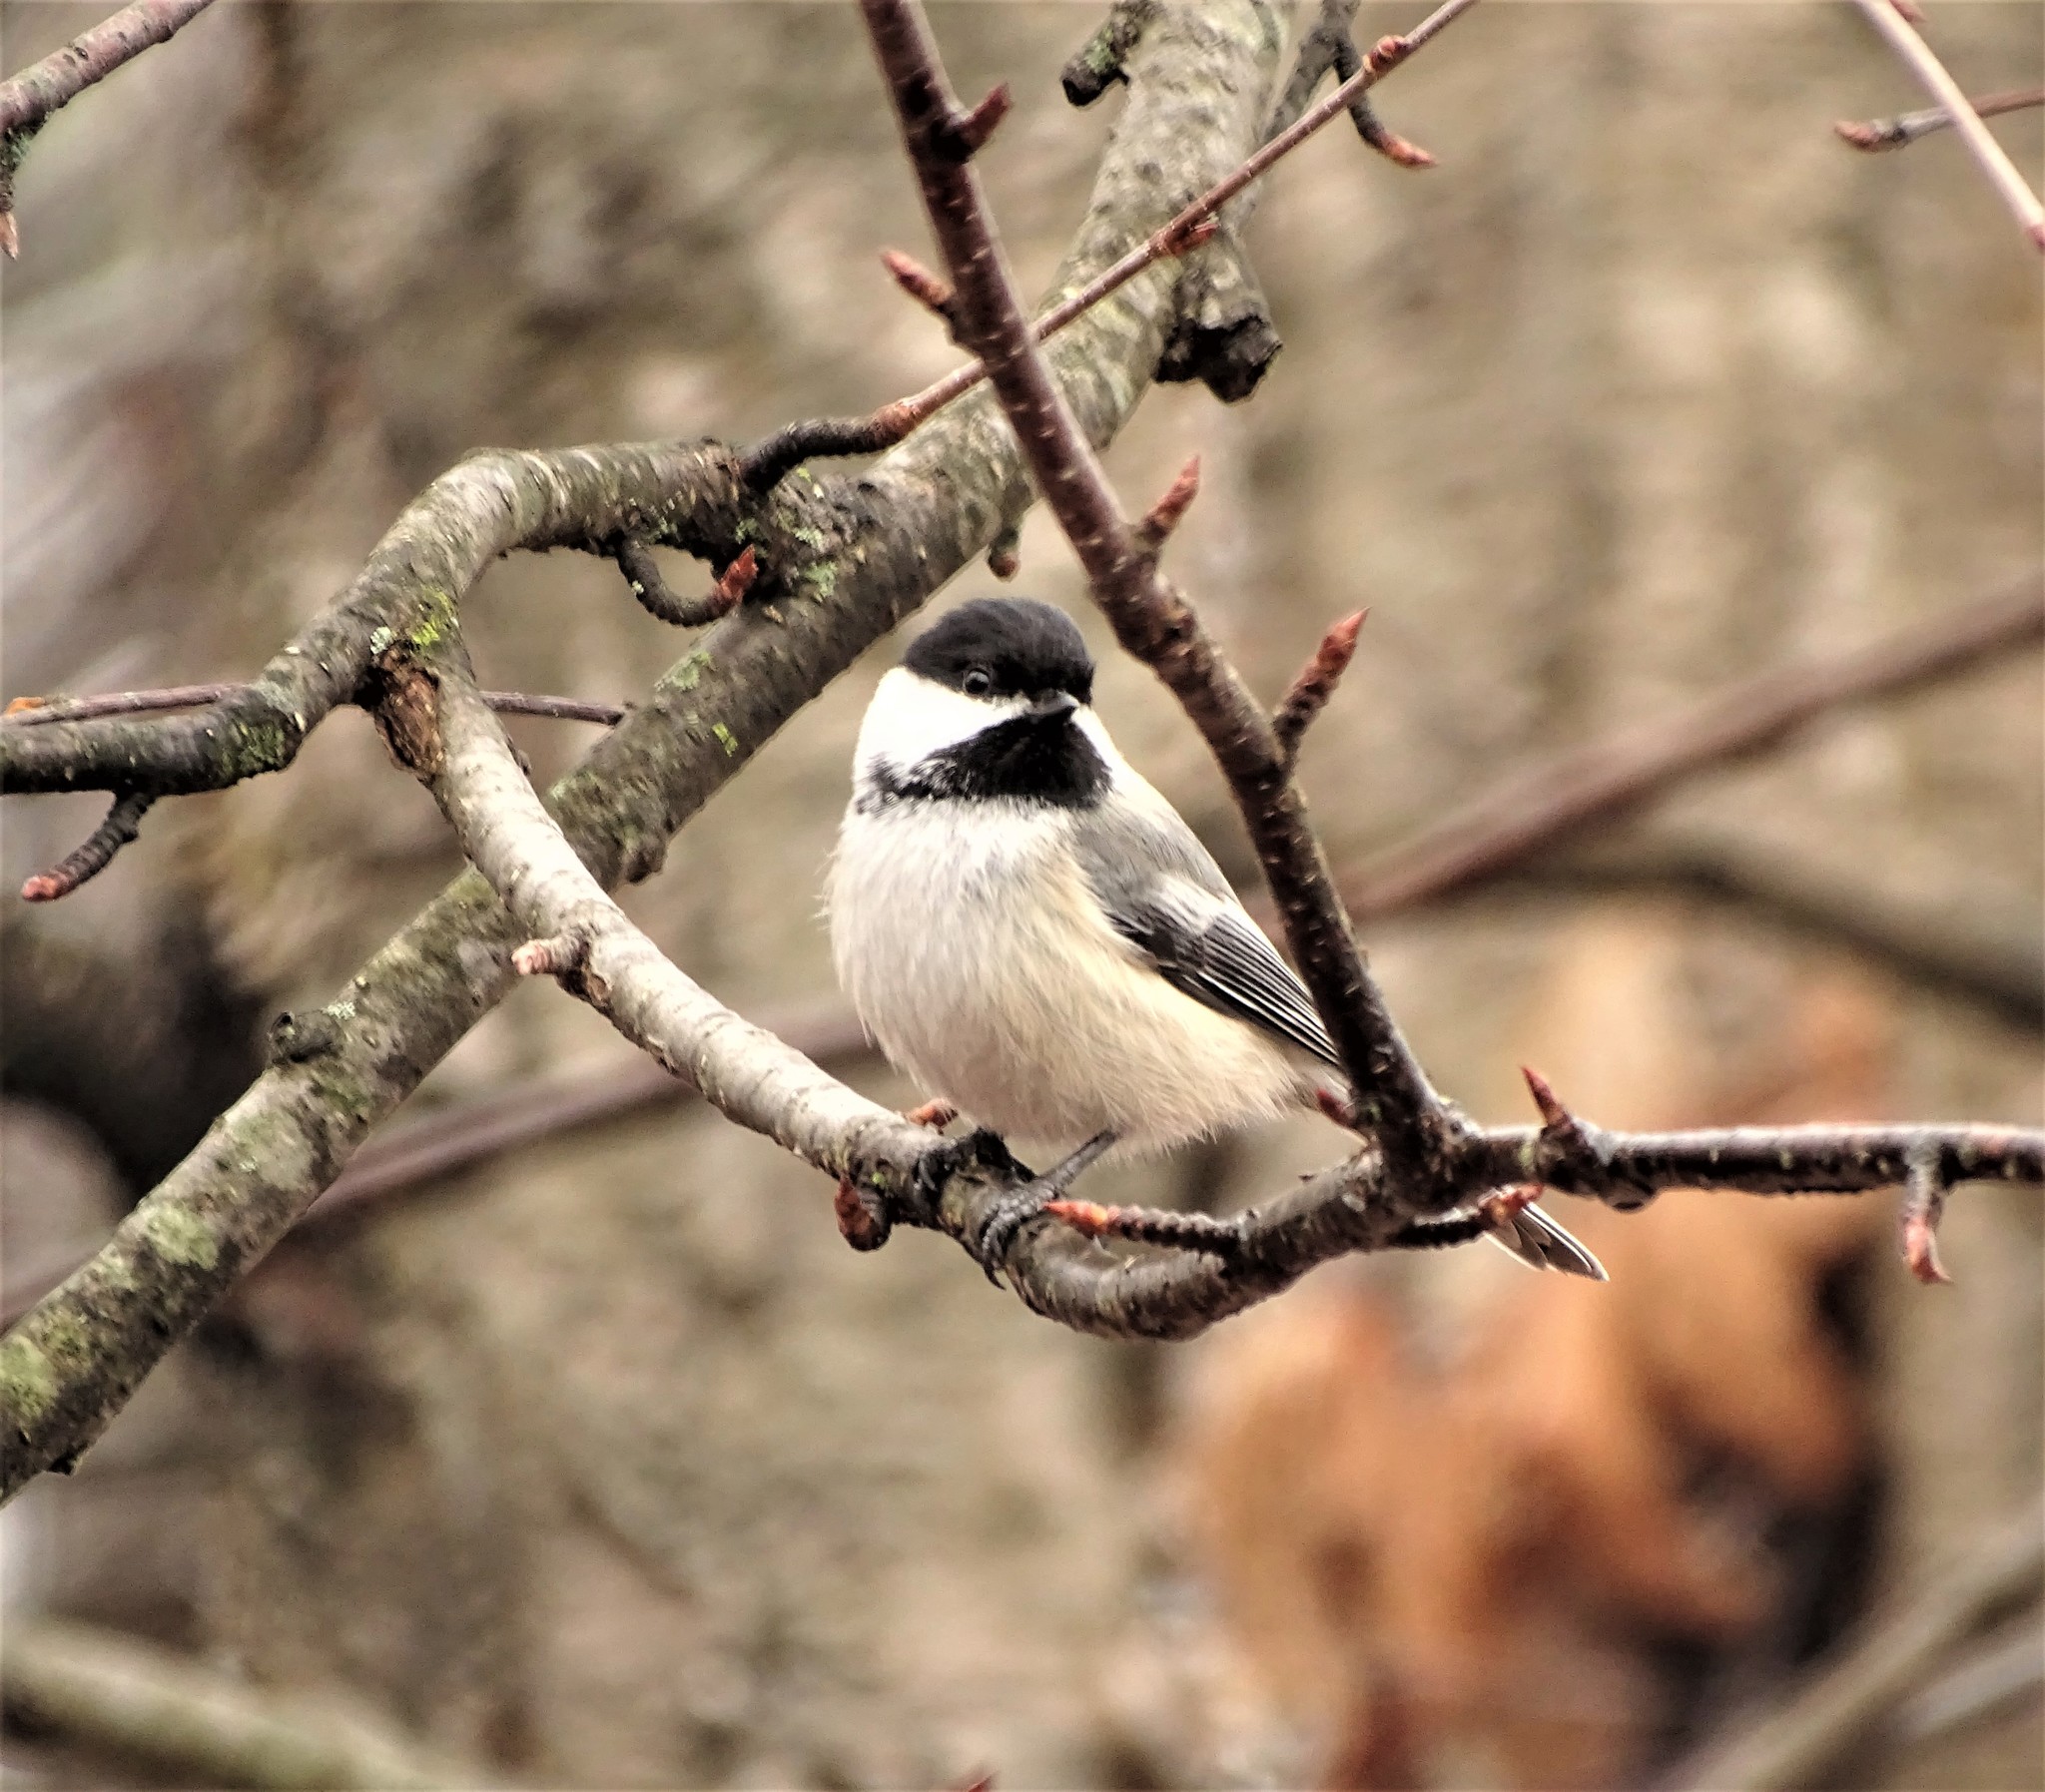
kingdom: Animalia
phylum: Chordata
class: Aves
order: Passeriformes
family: Paridae
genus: Poecile
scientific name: Poecile atricapillus
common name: Black-capped chickadee
